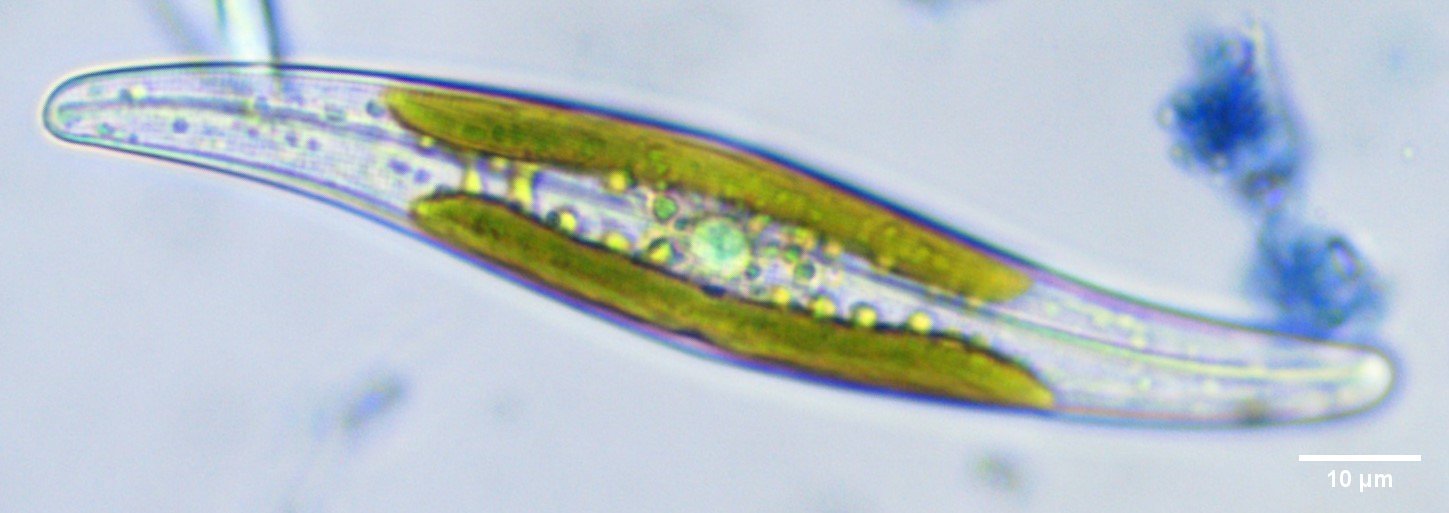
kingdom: Chromista
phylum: Ochrophyta
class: Bacillariophyceae
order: Naviculales
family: Pleurosigmataceae
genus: Gyrosigma
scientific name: Gyrosigma acuminatum
